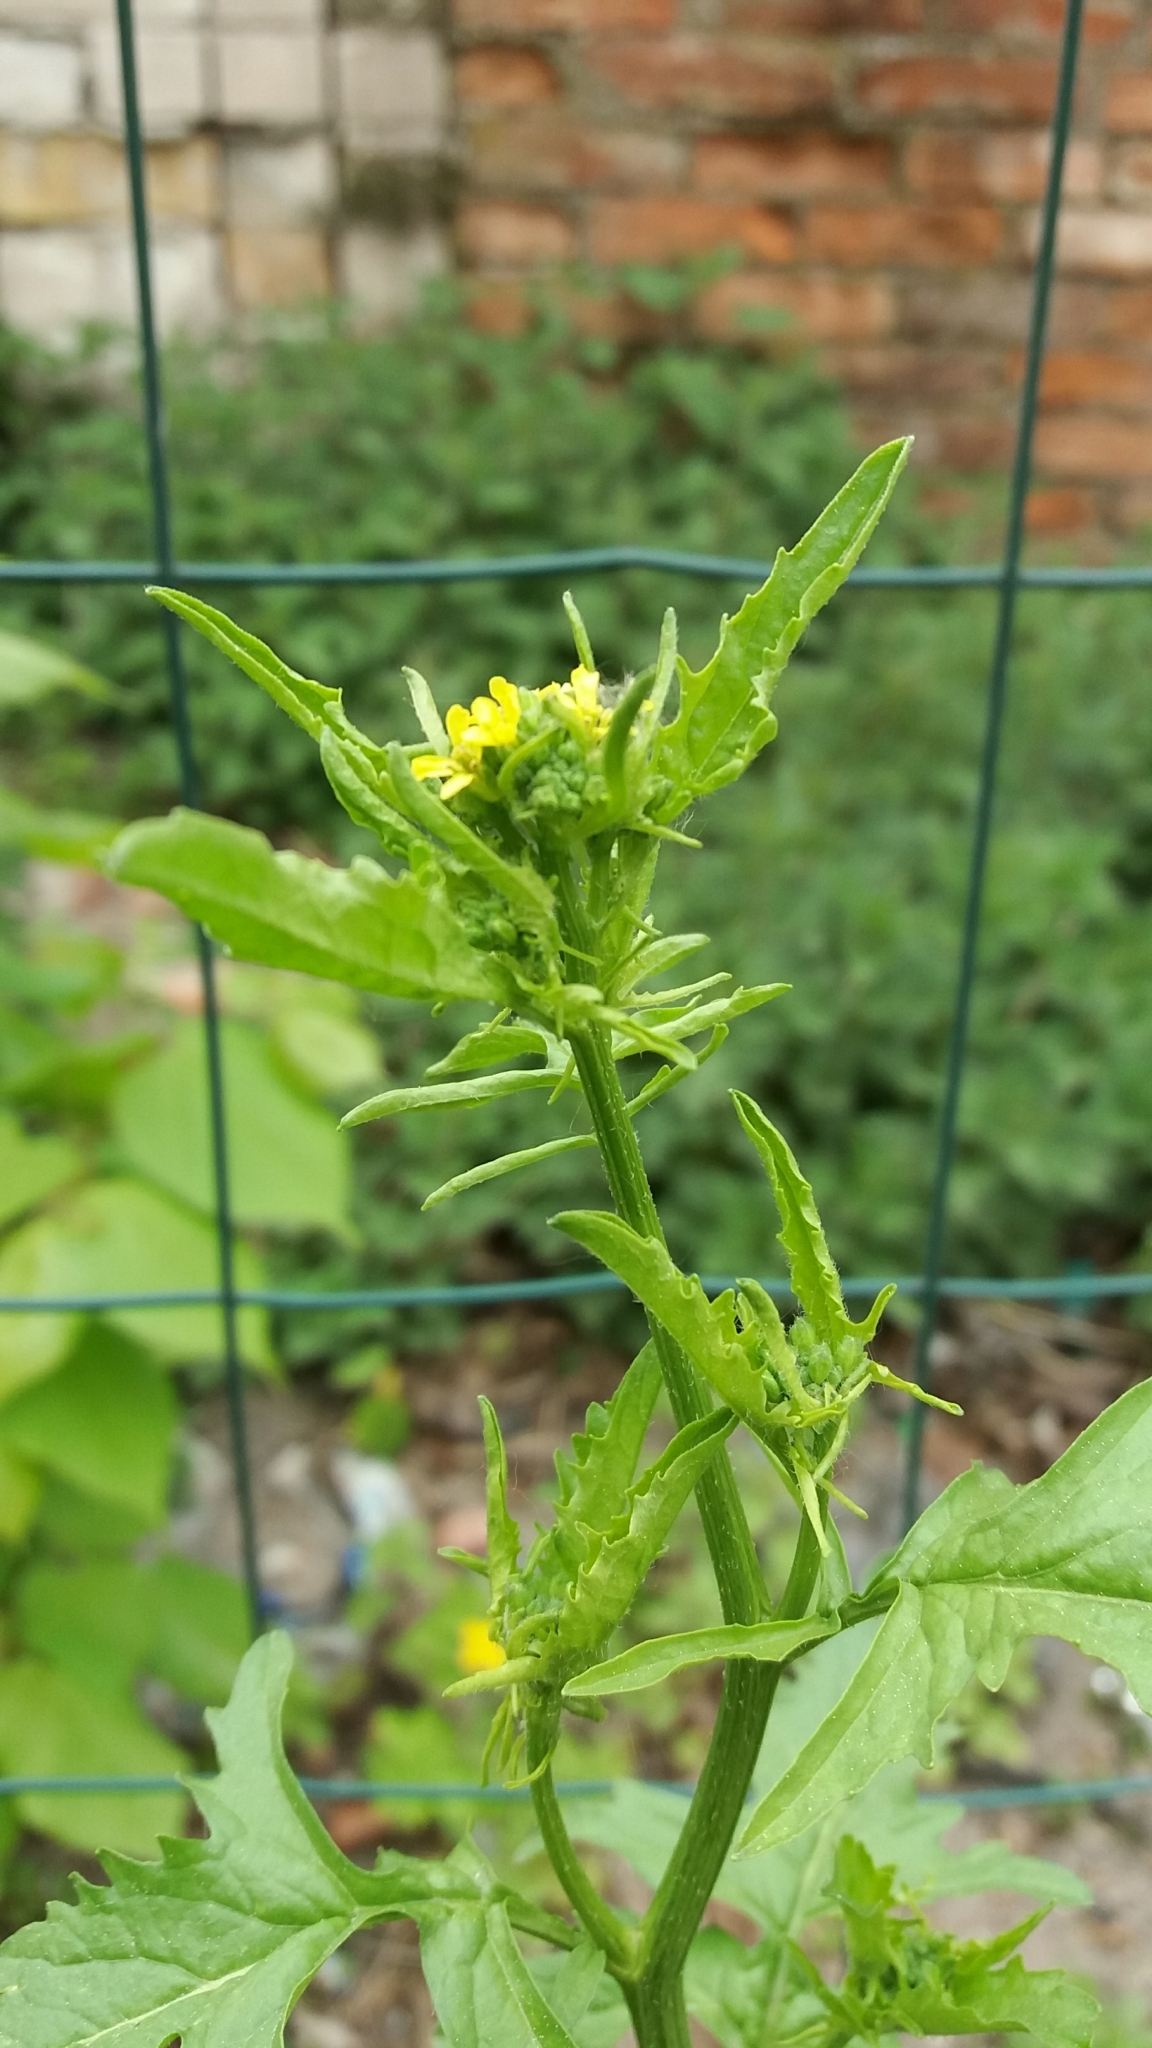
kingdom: Plantae
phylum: Tracheophyta
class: Magnoliopsida
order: Brassicales
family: Brassicaceae
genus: Sisymbrium
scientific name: Sisymbrium
